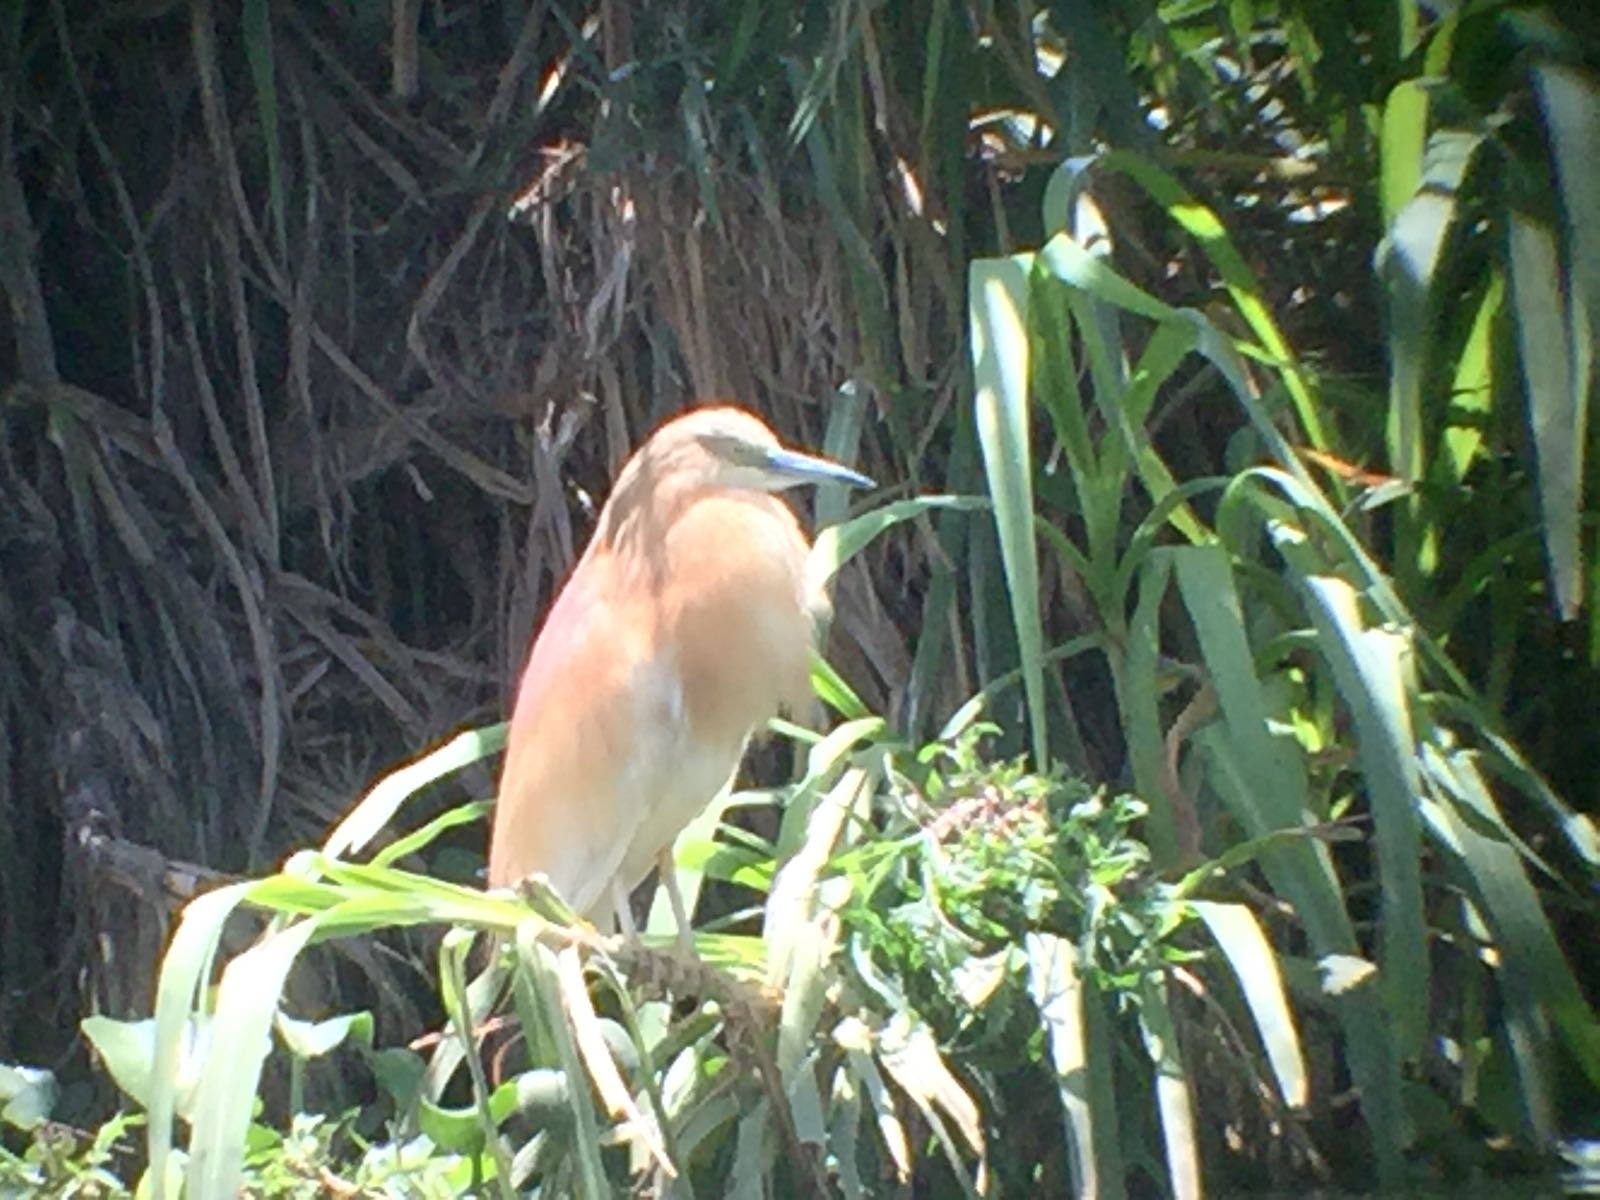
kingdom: Animalia
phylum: Chordata
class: Aves
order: Pelecaniformes
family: Ardeidae
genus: Ardeola
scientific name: Ardeola ralloides
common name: Squacco heron
